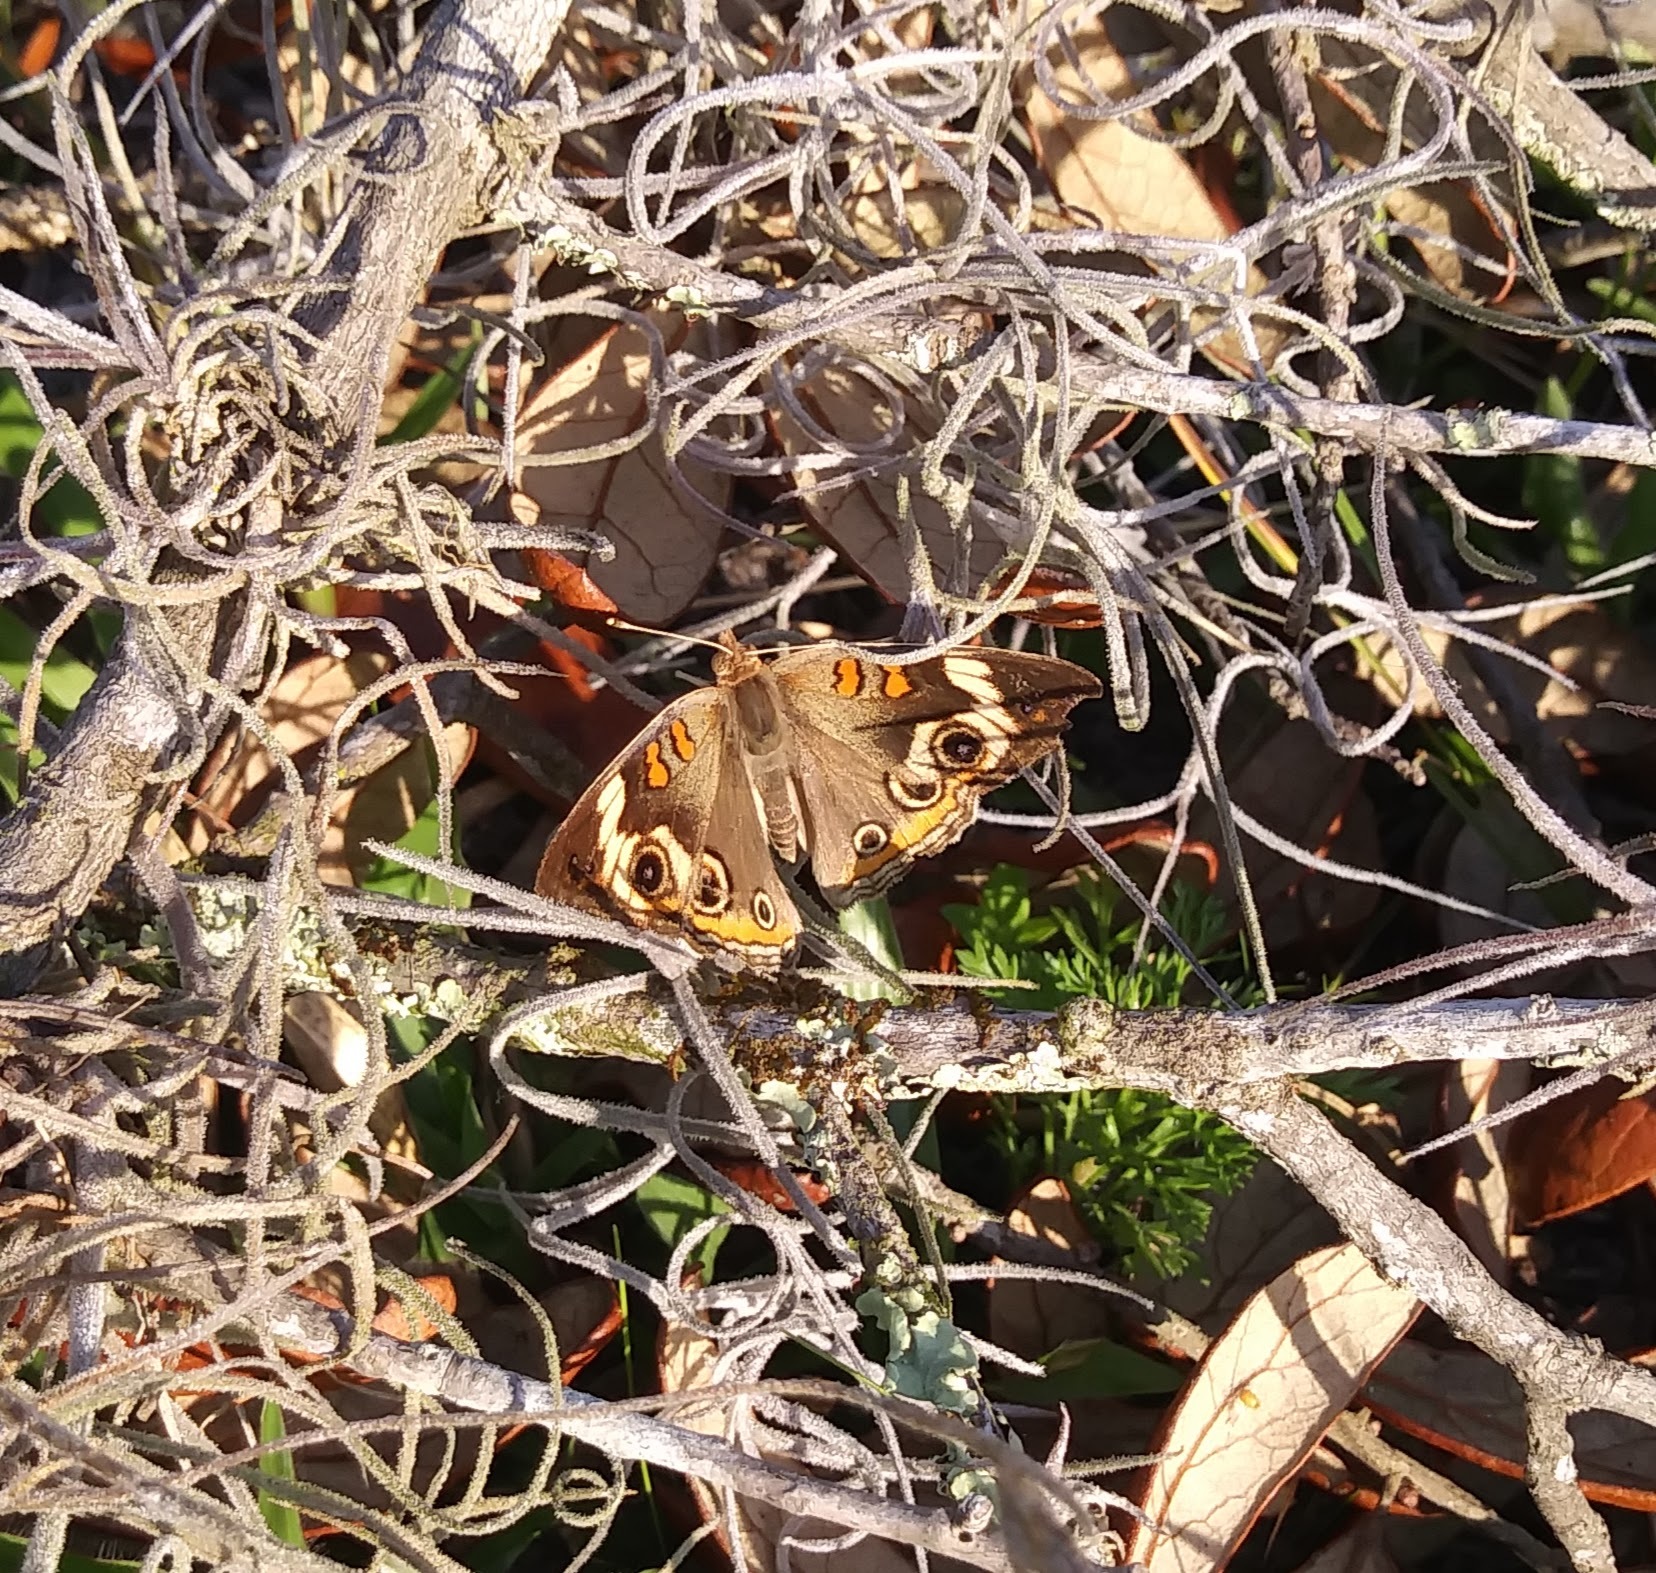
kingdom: Animalia
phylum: Arthropoda
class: Insecta
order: Lepidoptera
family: Nymphalidae
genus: Junonia
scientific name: Junonia coenia
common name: Common buckeye
